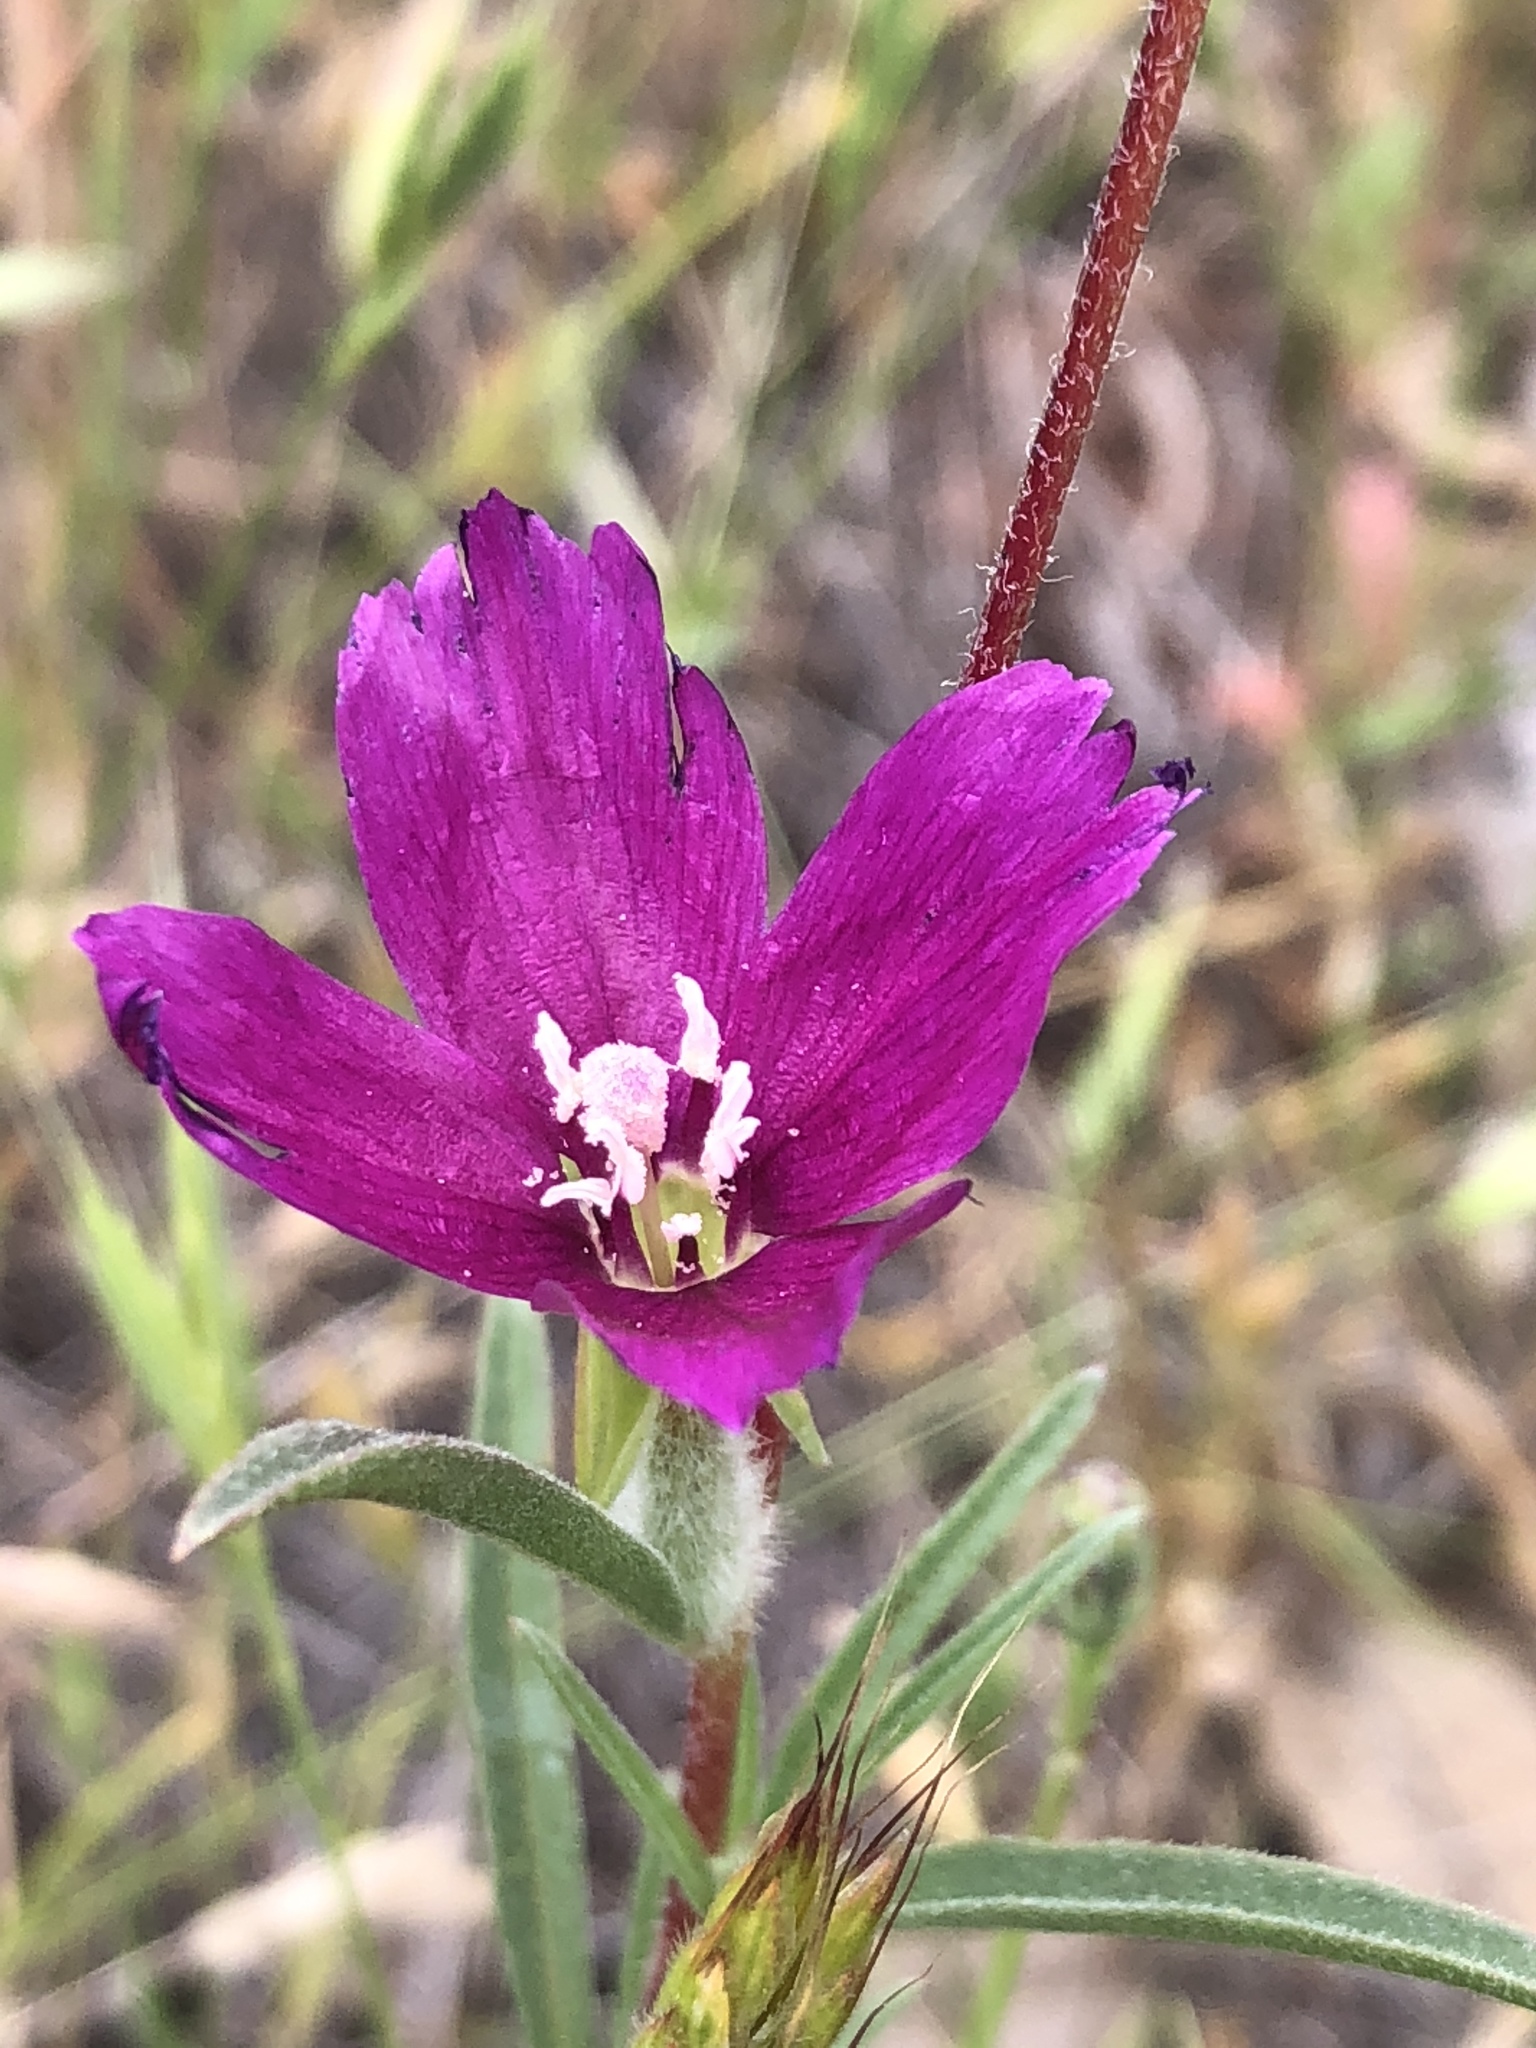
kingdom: Plantae
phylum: Tracheophyta
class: Magnoliopsida
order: Myrtales
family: Onagraceae
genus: Clarkia
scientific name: Clarkia purpurea
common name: Purple clarkia
